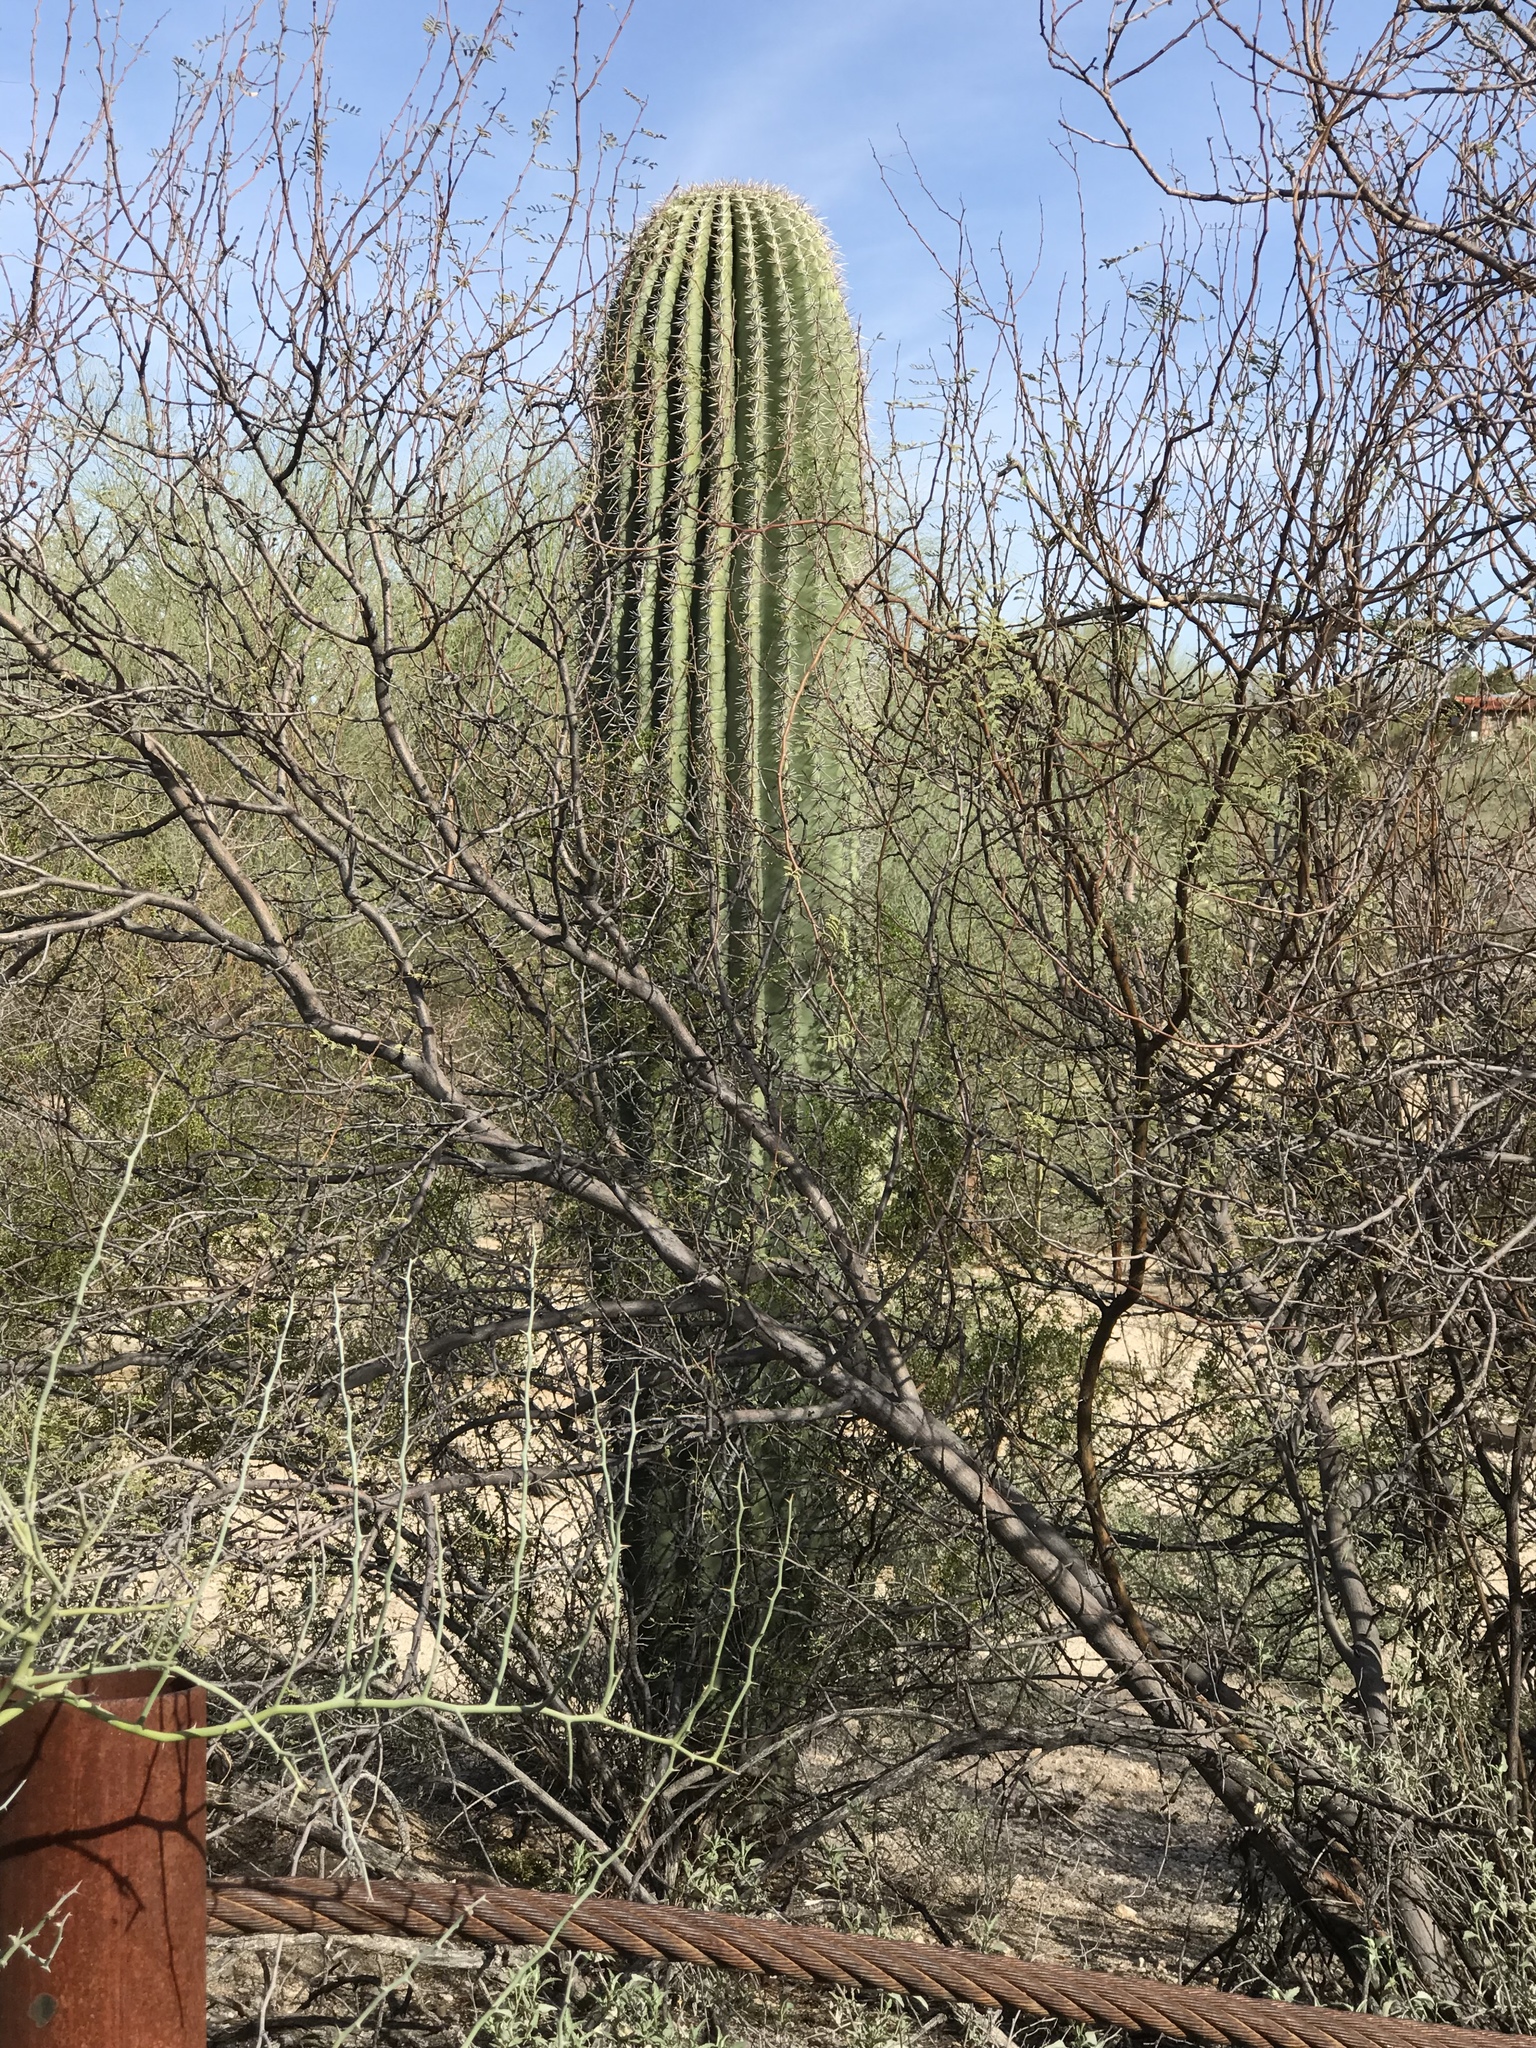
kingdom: Plantae
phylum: Tracheophyta
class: Magnoliopsida
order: Caryophyllales
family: Cactaceae
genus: Carnegiea
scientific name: Carnegiea gigantea
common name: Saguaro
